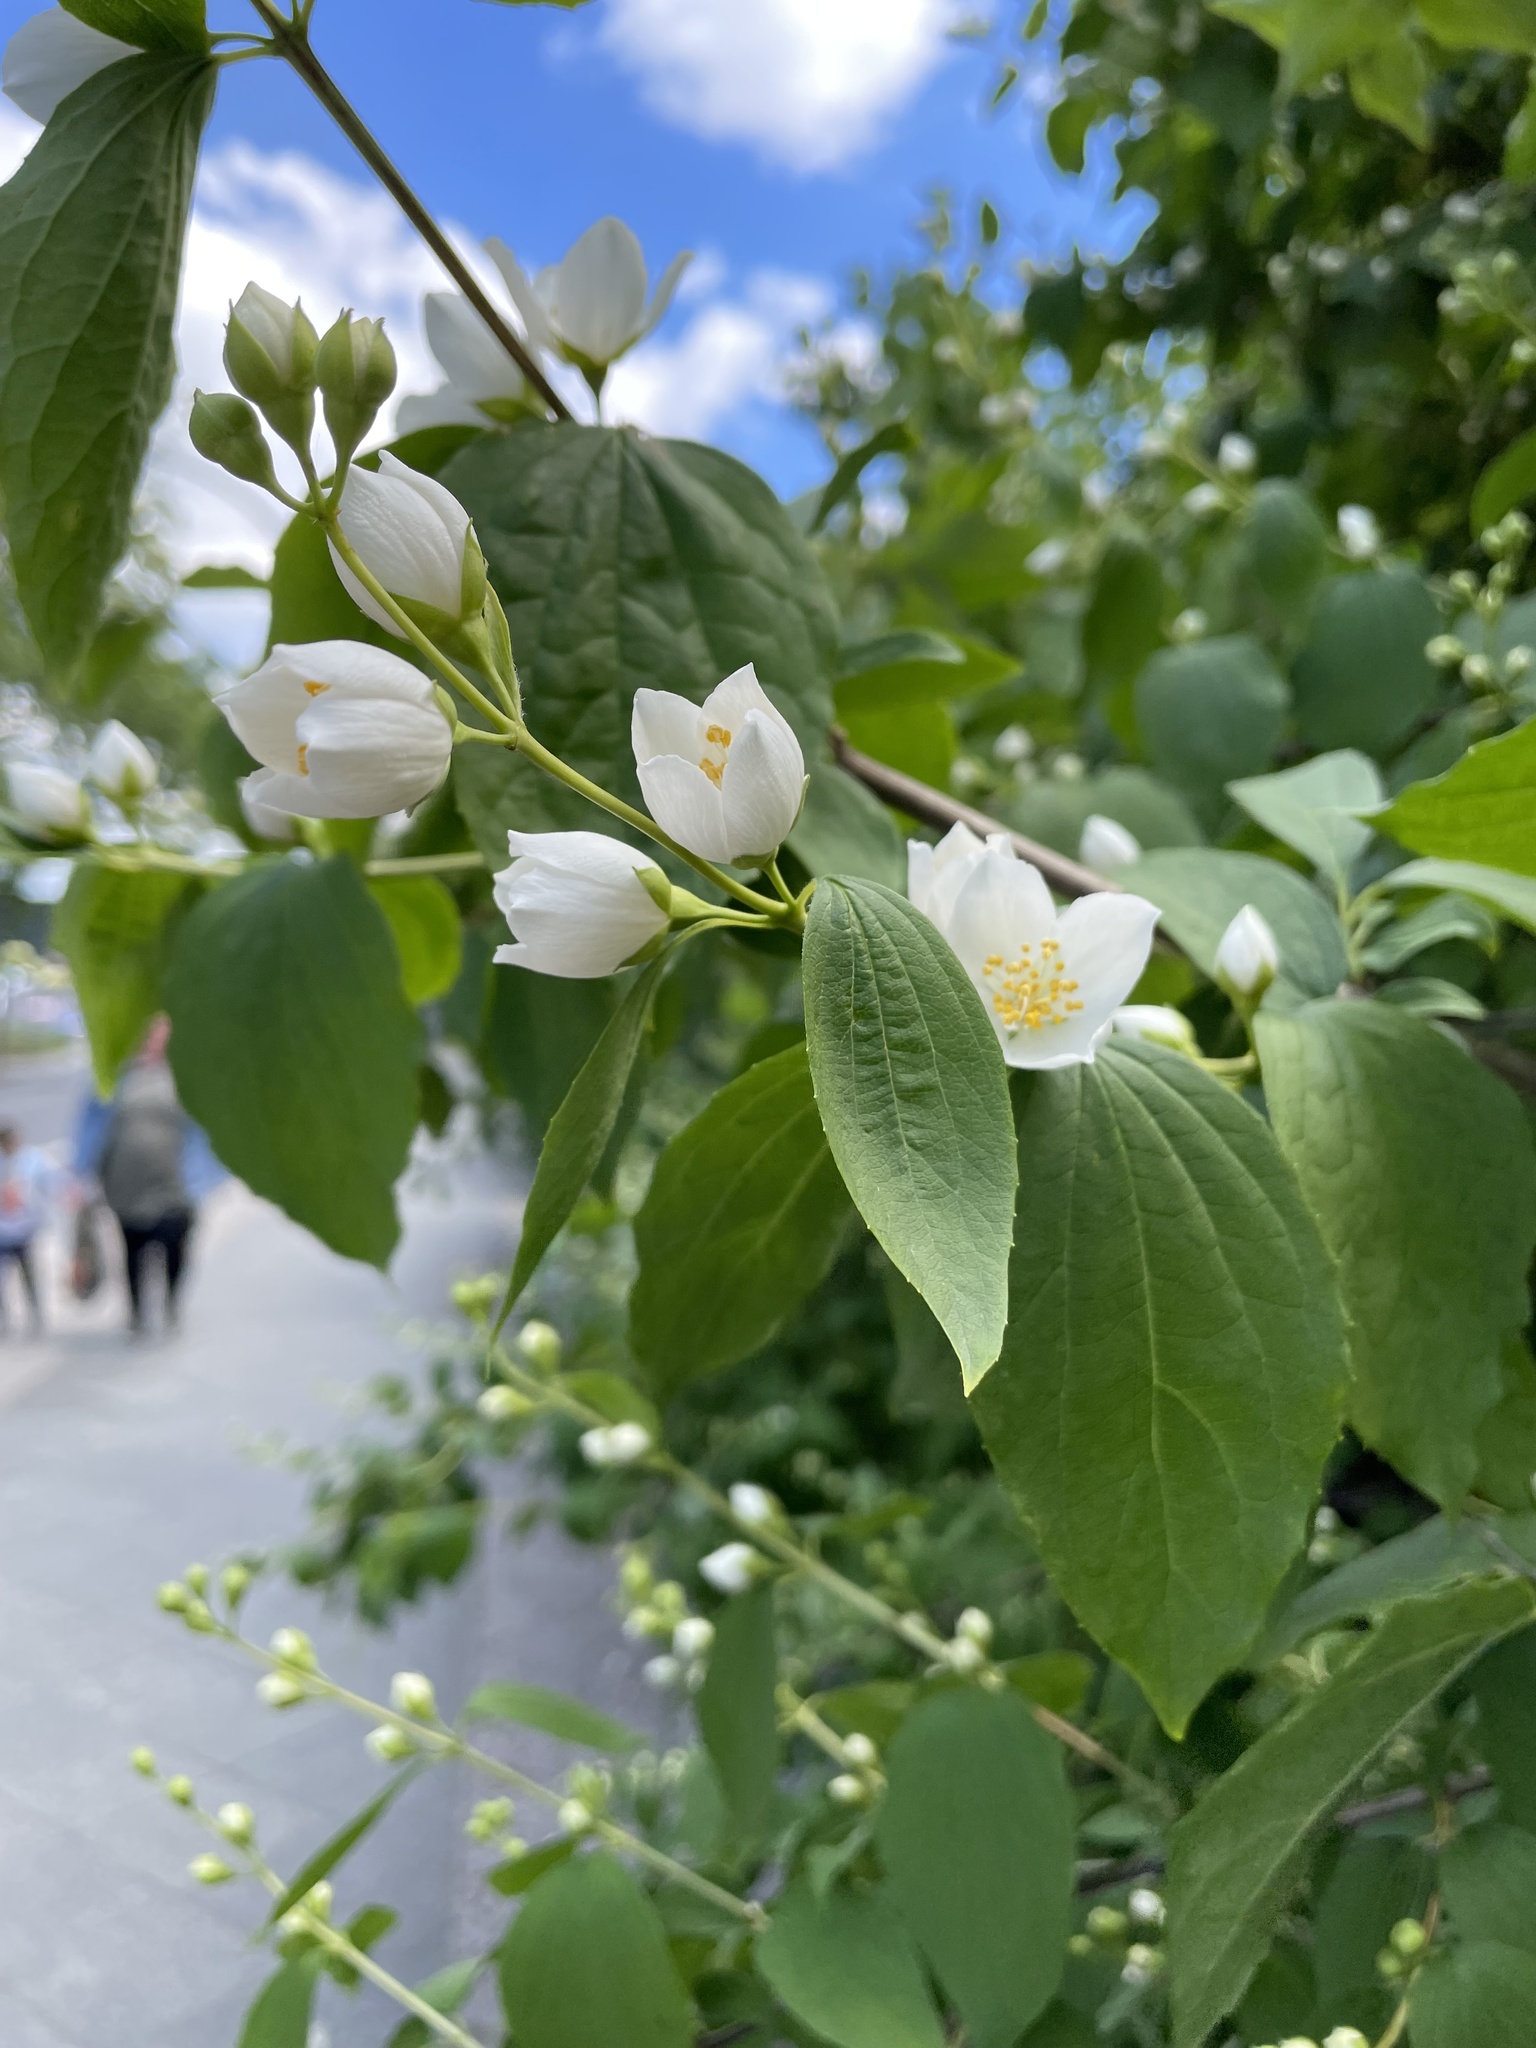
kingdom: Plantae
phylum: Tracheophyta
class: Magnoliopsida
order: Cornales
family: Hydrangeaceae
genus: Philadelphus
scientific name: Philadelphus coronarius
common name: Mock orange
